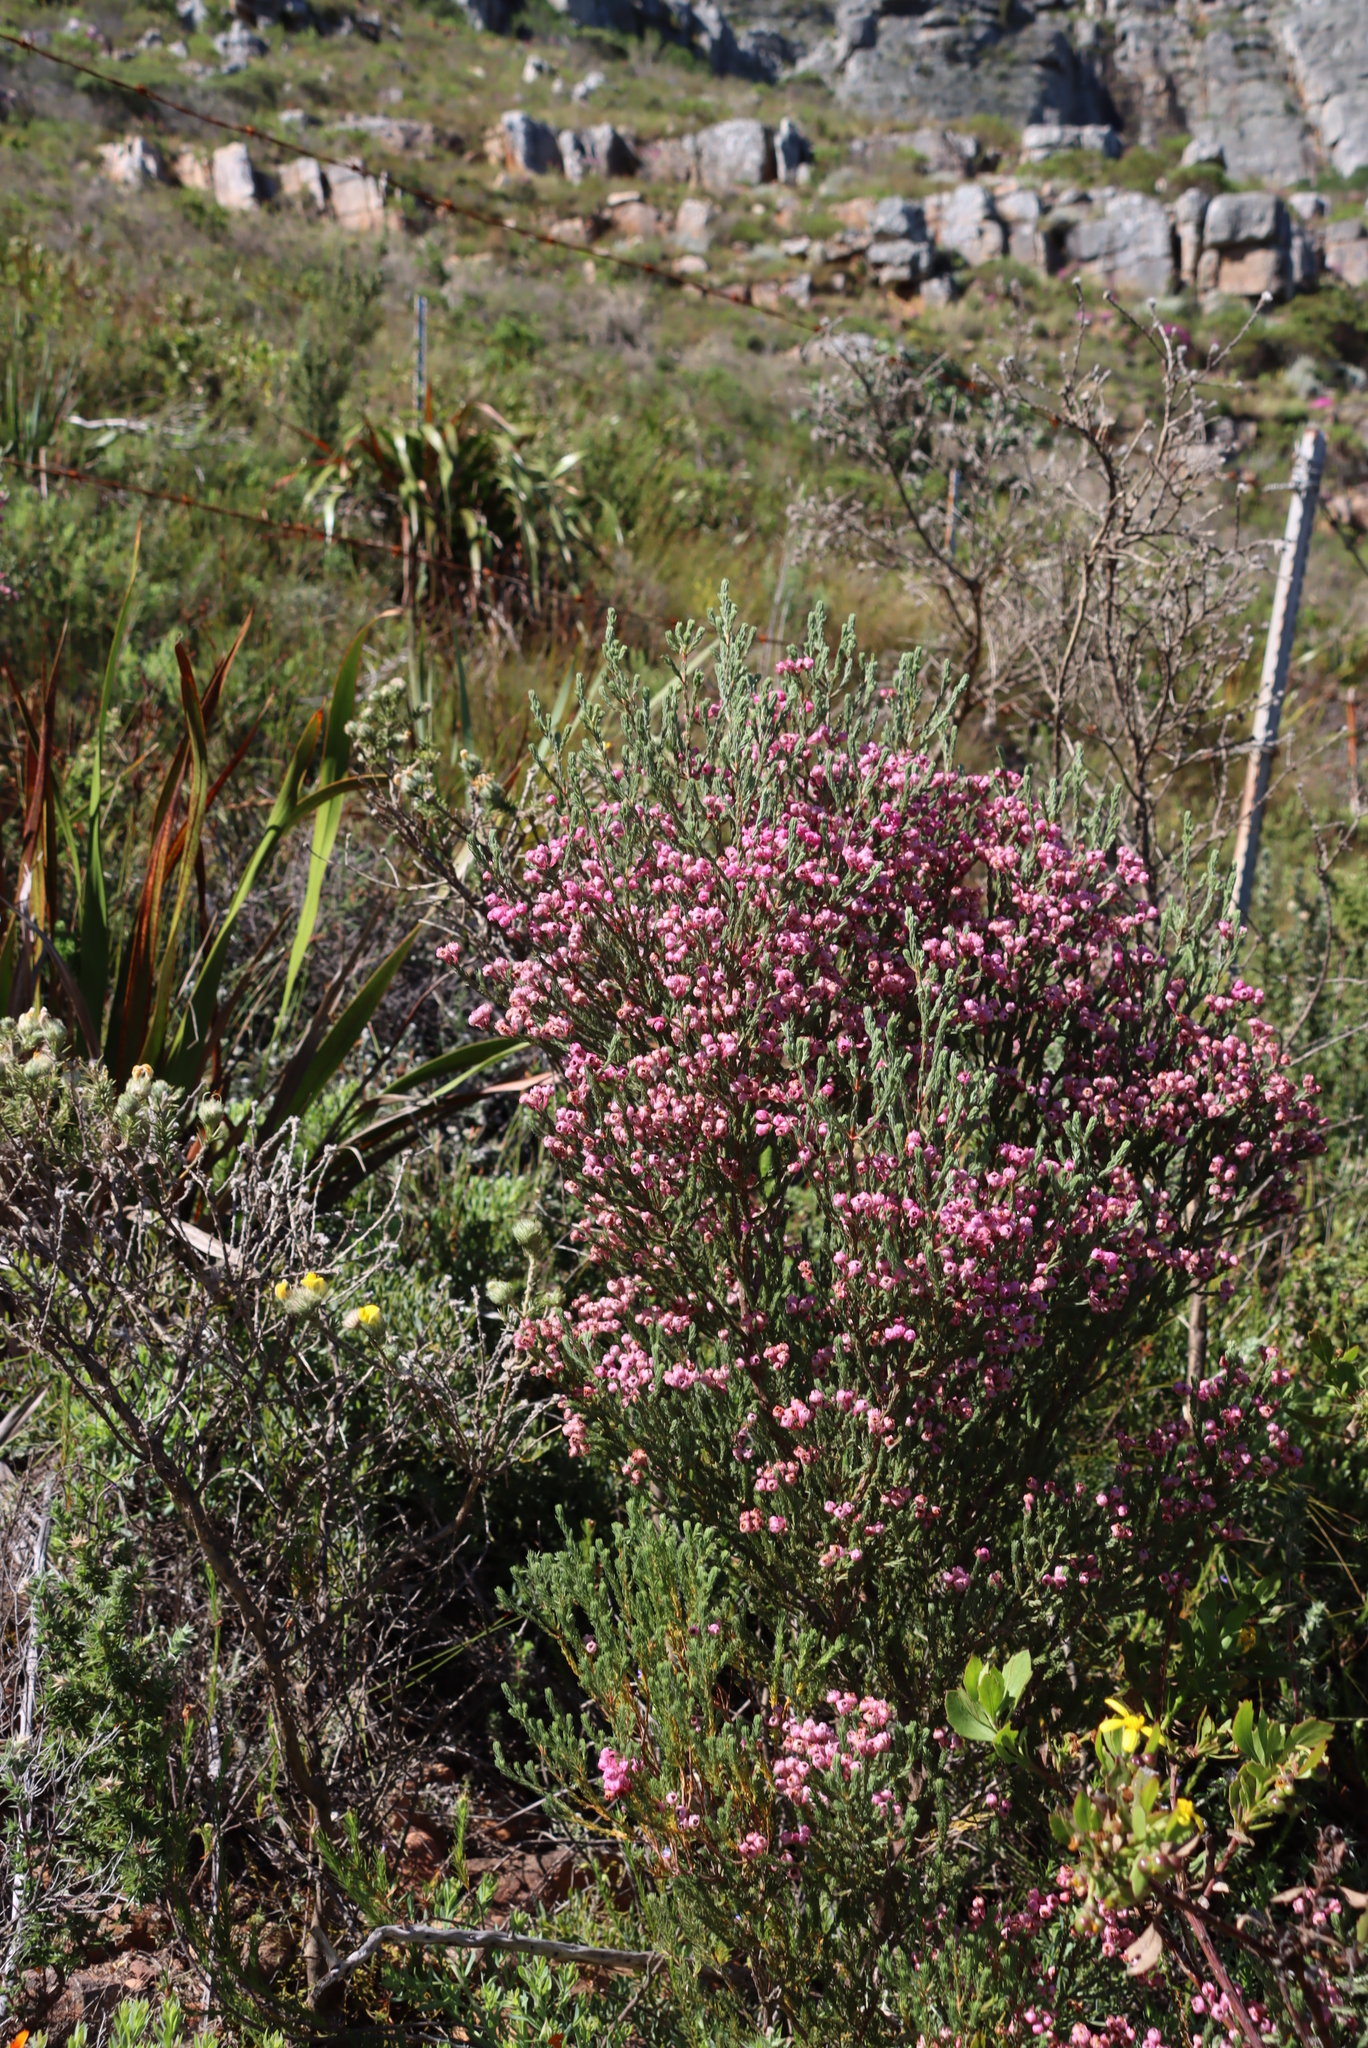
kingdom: Plantae
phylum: Tracheophyta
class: Magnoliopsida
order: Ericales
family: Ericaceae
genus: Erica
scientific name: Erica baccans
